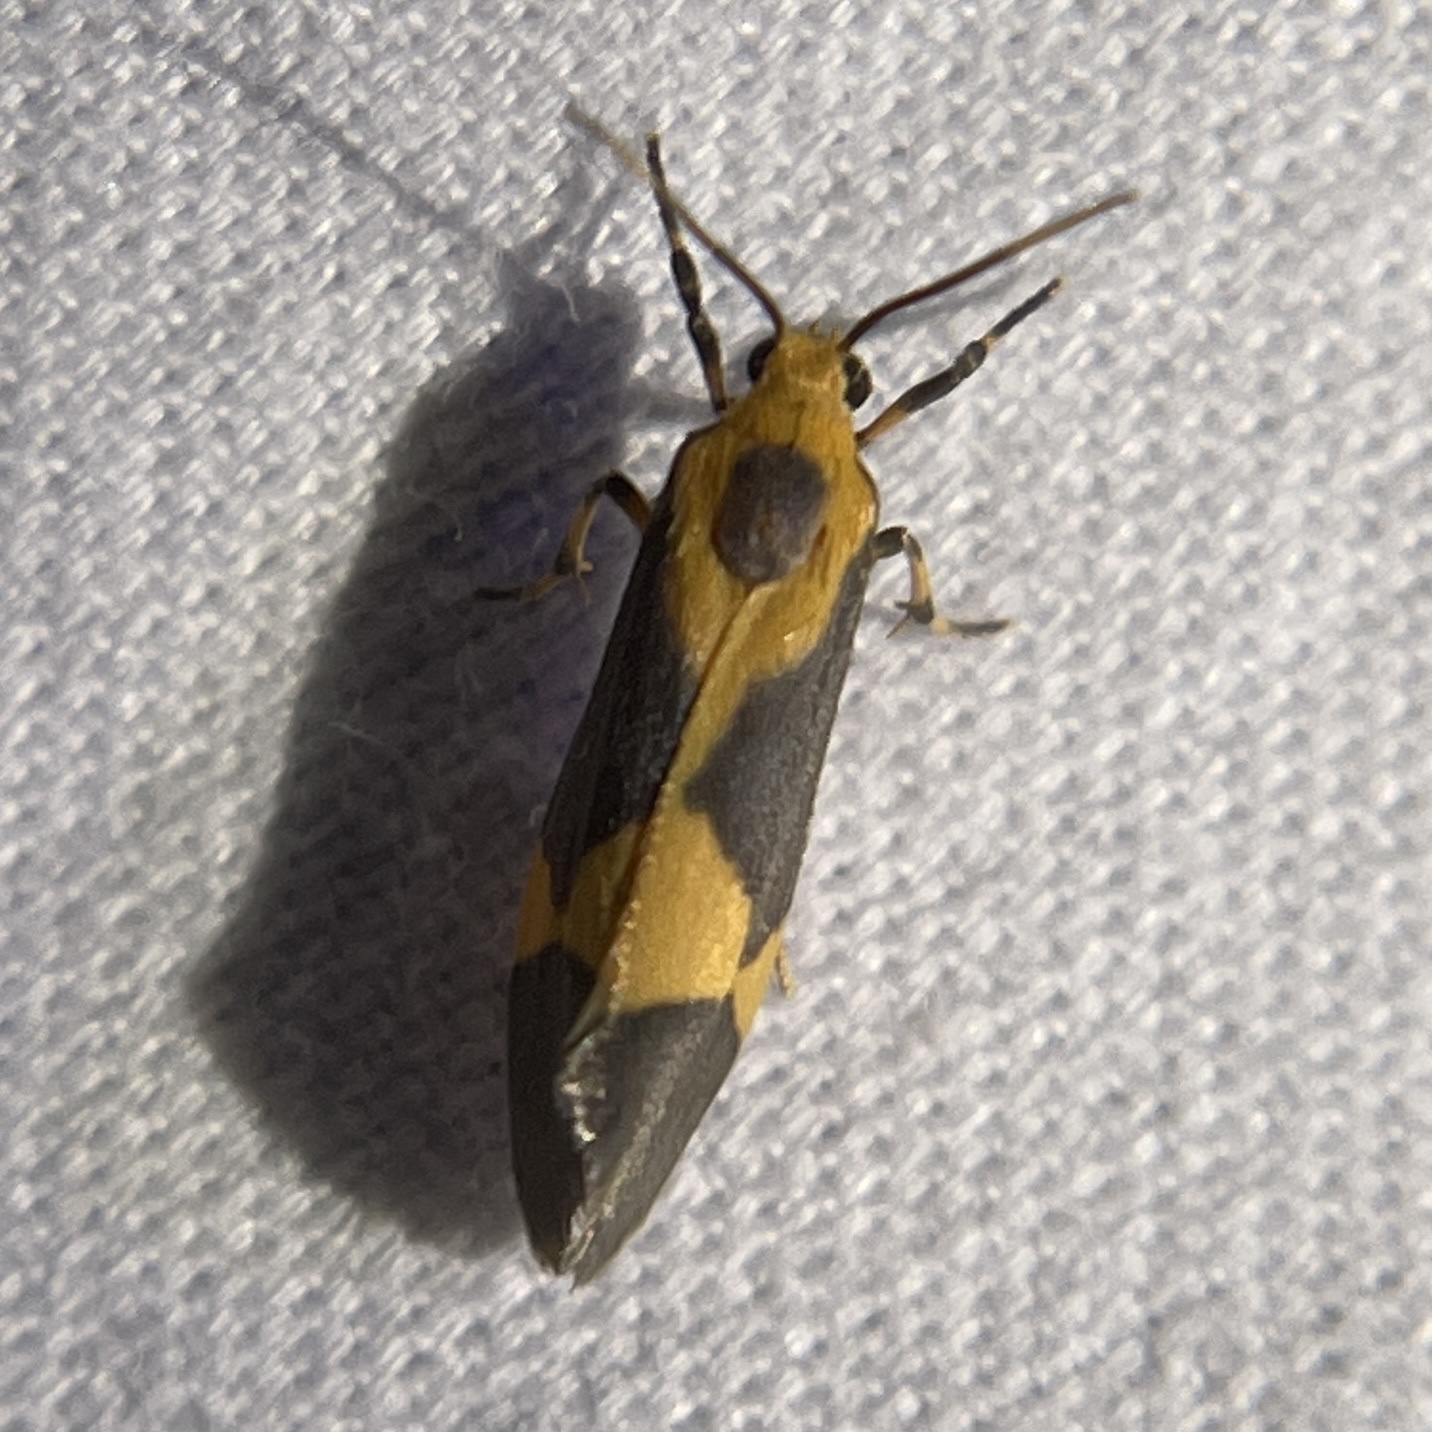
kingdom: Animalia
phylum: Arthropoda
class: Insecta
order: Lepidoptera
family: Erebidae
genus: Cisthene
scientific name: Cisthene unifascia
